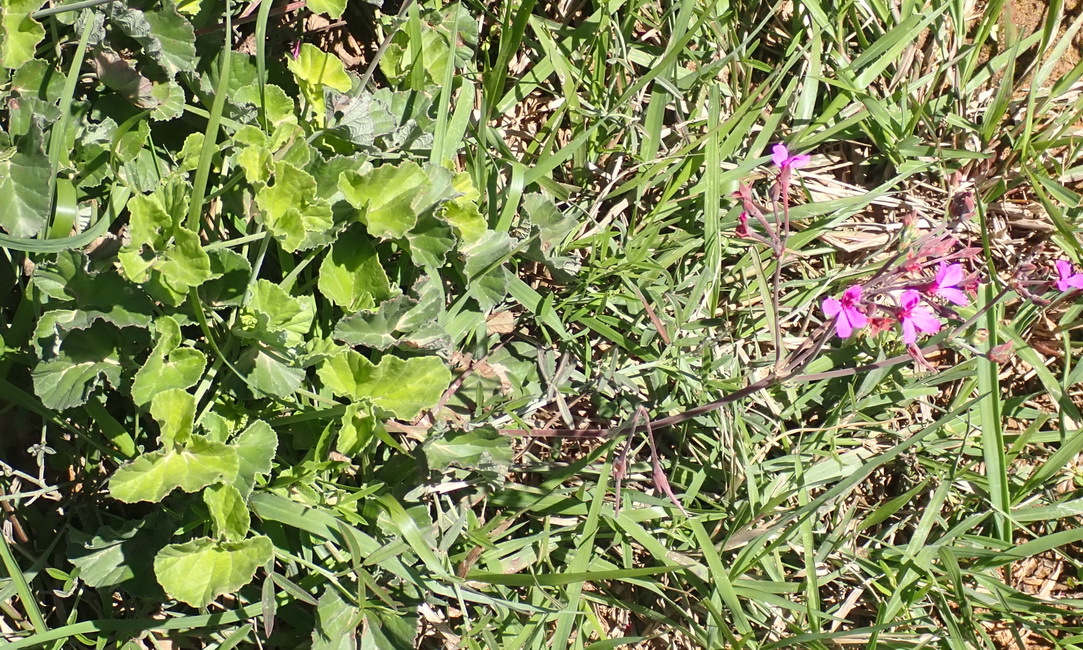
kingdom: Plantae
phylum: Tracheophyta
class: Magnoliopsida
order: Geraniales
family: Geraniaceae
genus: Pelargonium
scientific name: Pelargonium reniforme
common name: Kidney-leaf pelargonium
